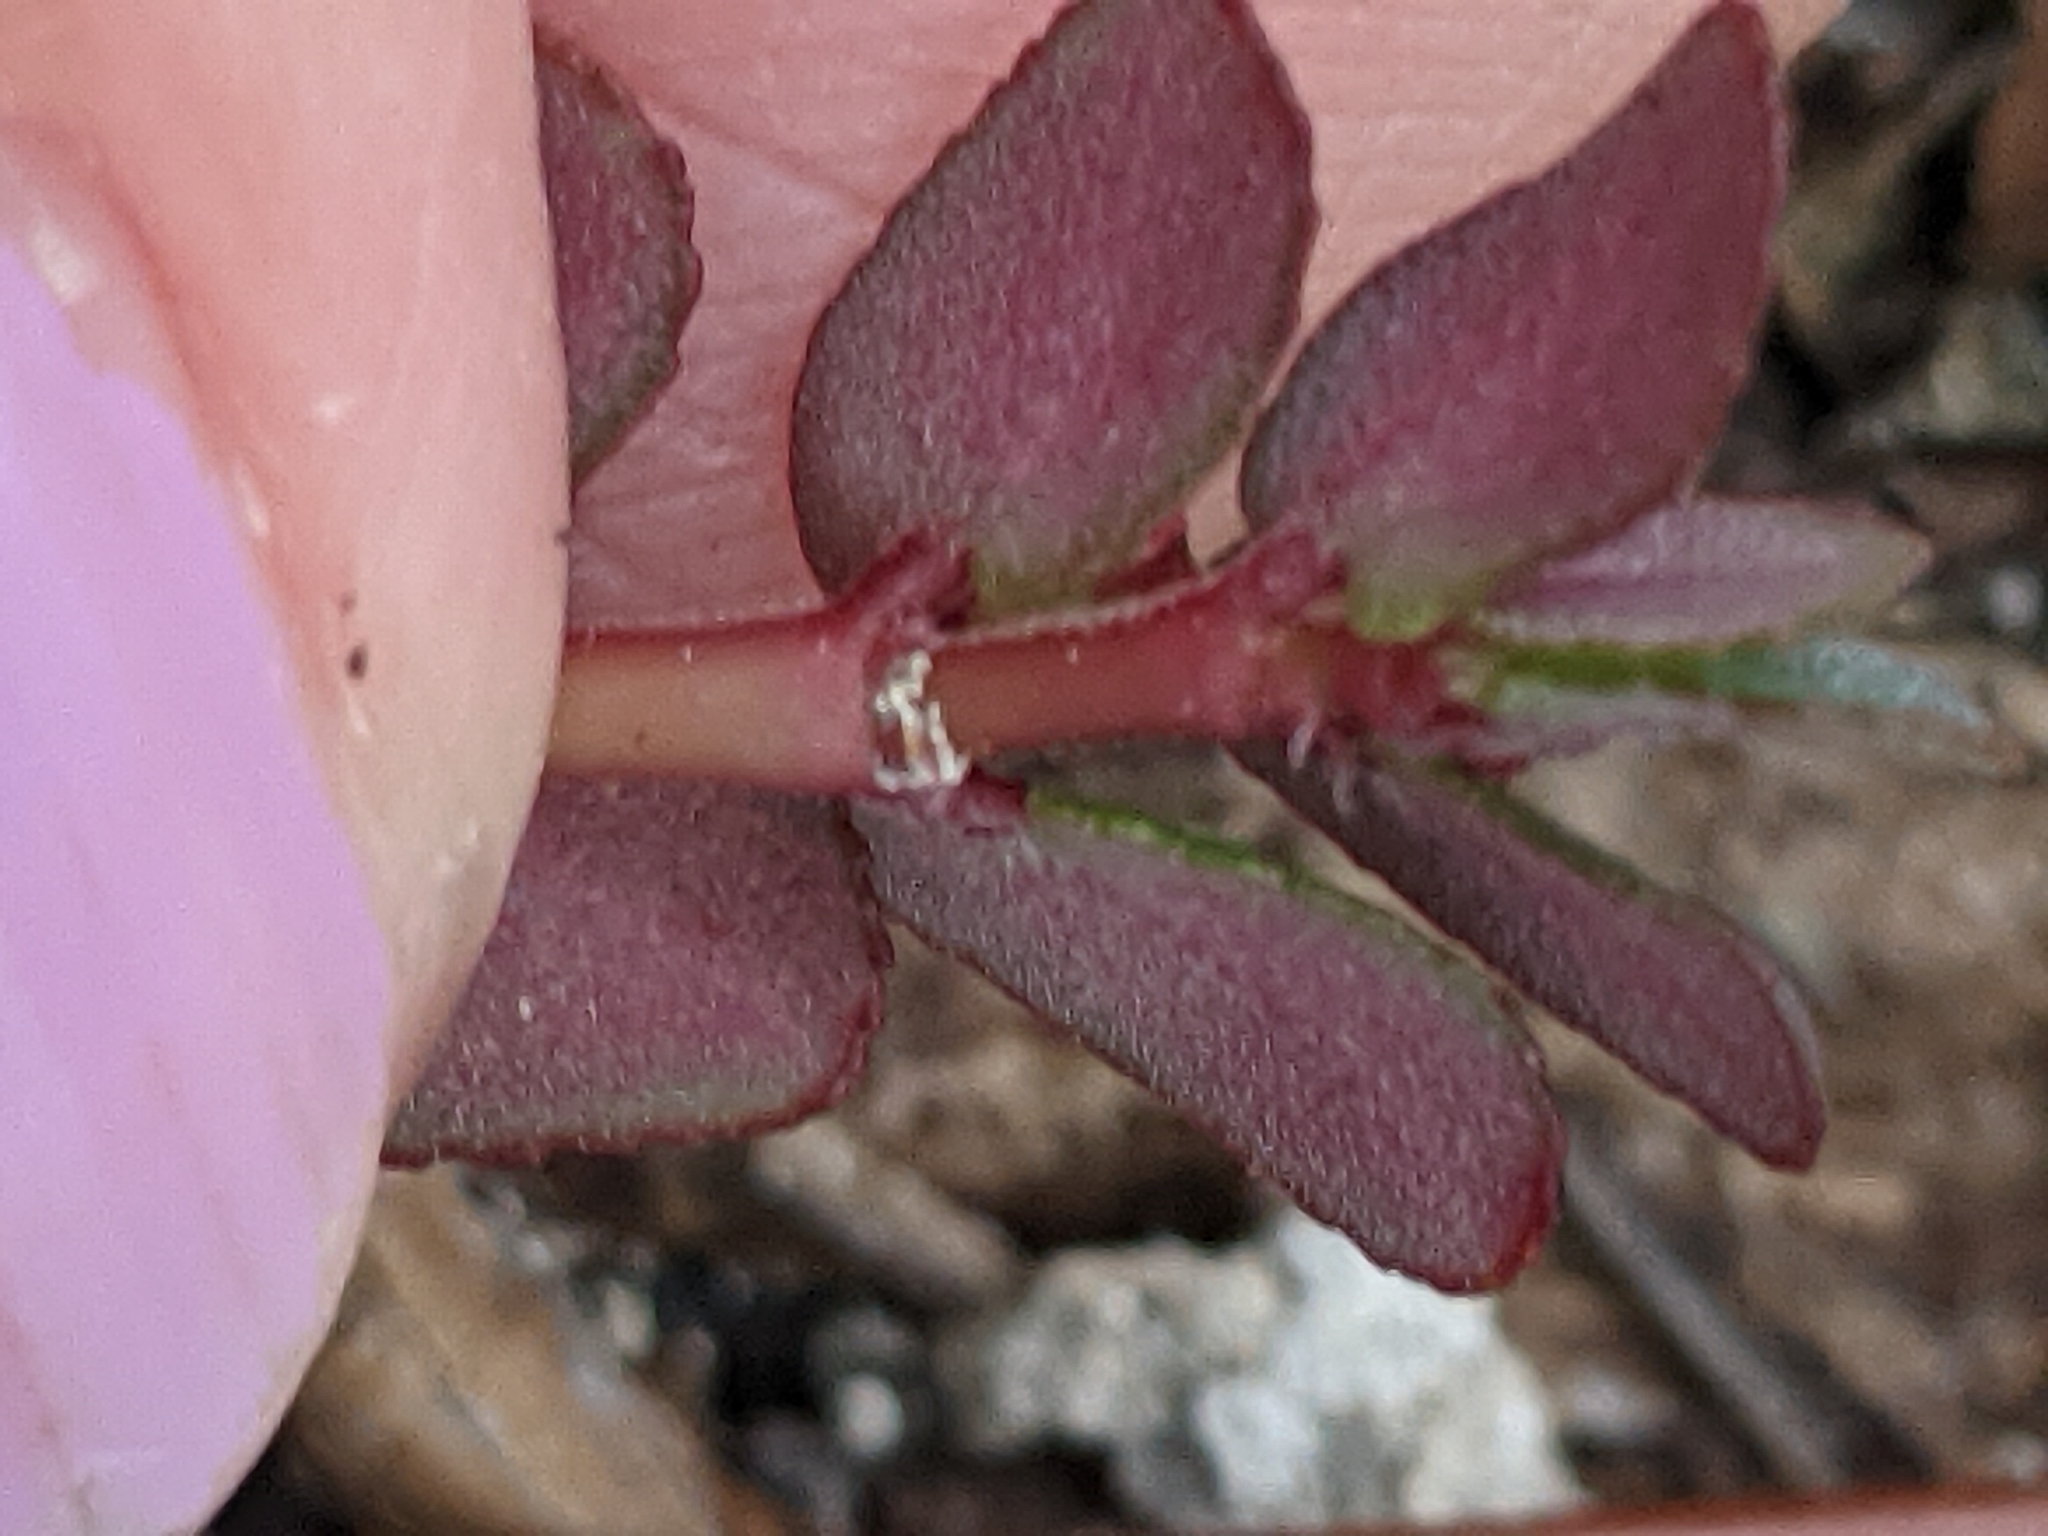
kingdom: Plantae
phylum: Tracheophyta
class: Magnoliopsida
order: Malpighiales
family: Euphorbiaceae
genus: Euphorbia
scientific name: Euphorbia pergamena
